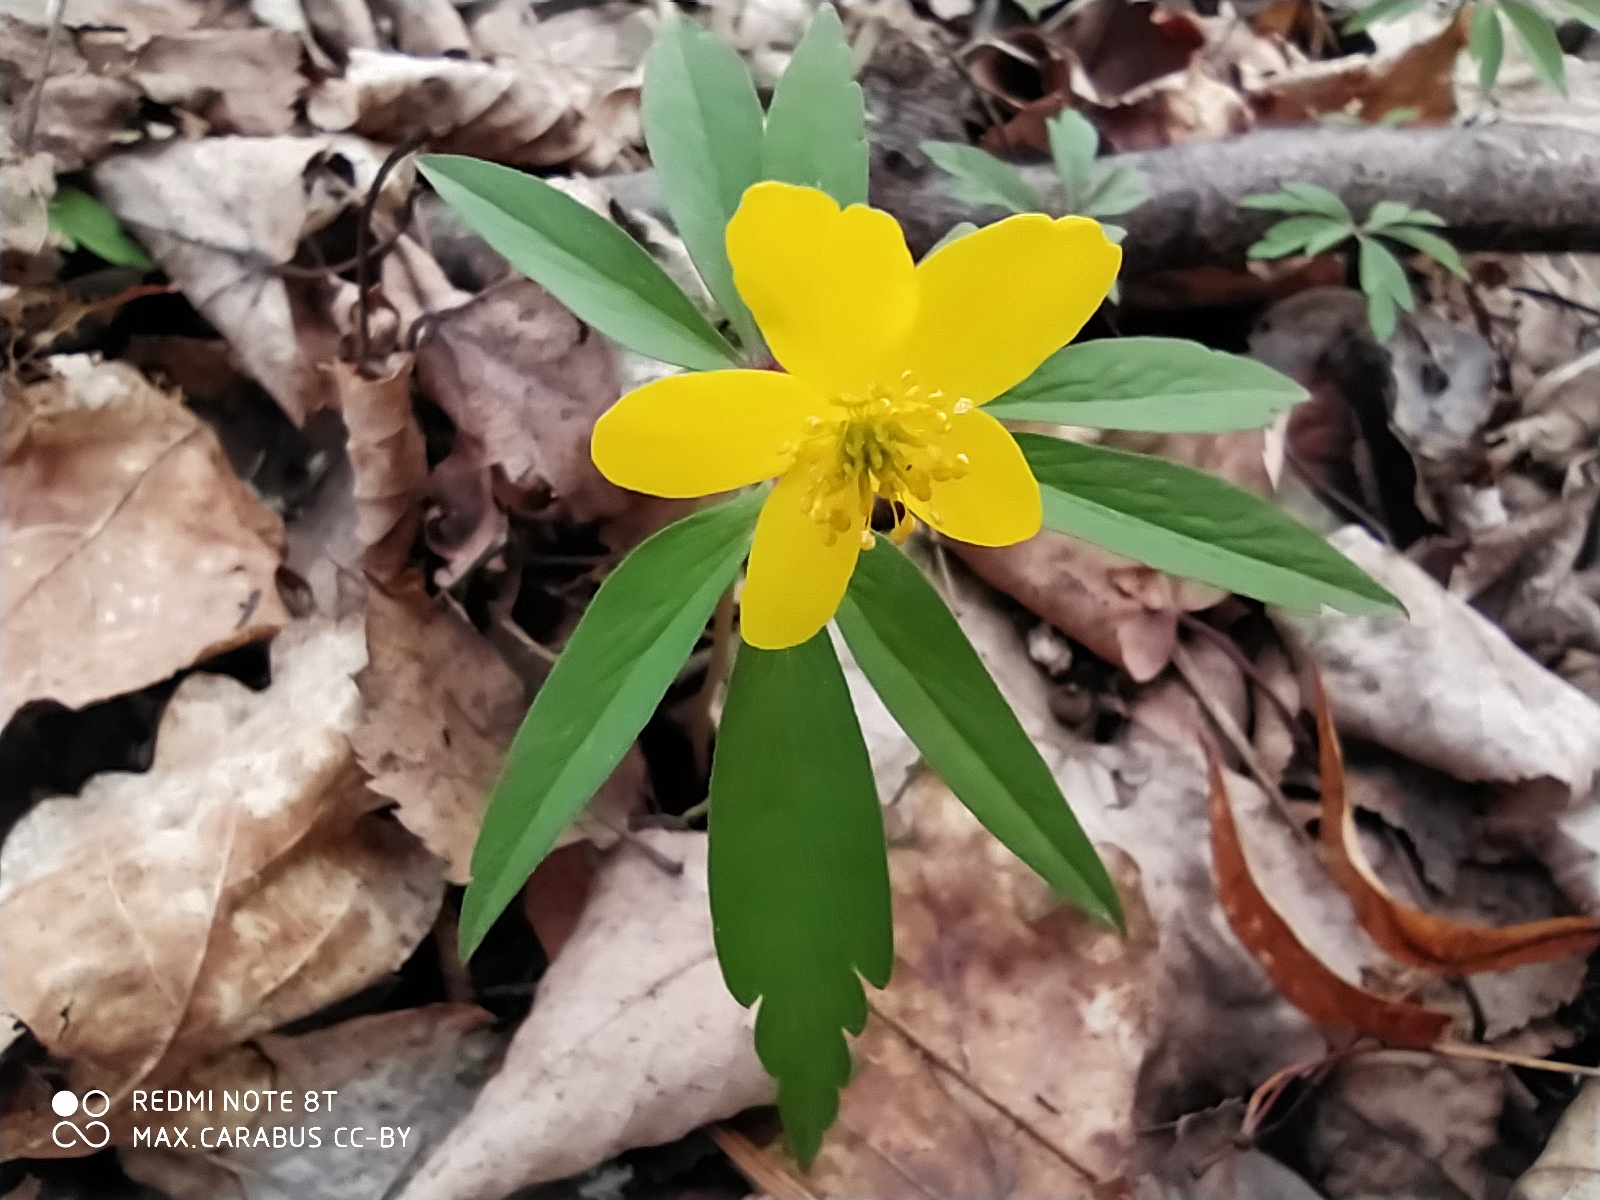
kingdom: Plantae
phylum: Tracheophyta
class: Magnoliopsida
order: Ranunculales
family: Ranunculaceae
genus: Anemone
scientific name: Anemone ranunculoides
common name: Yellow anemone
